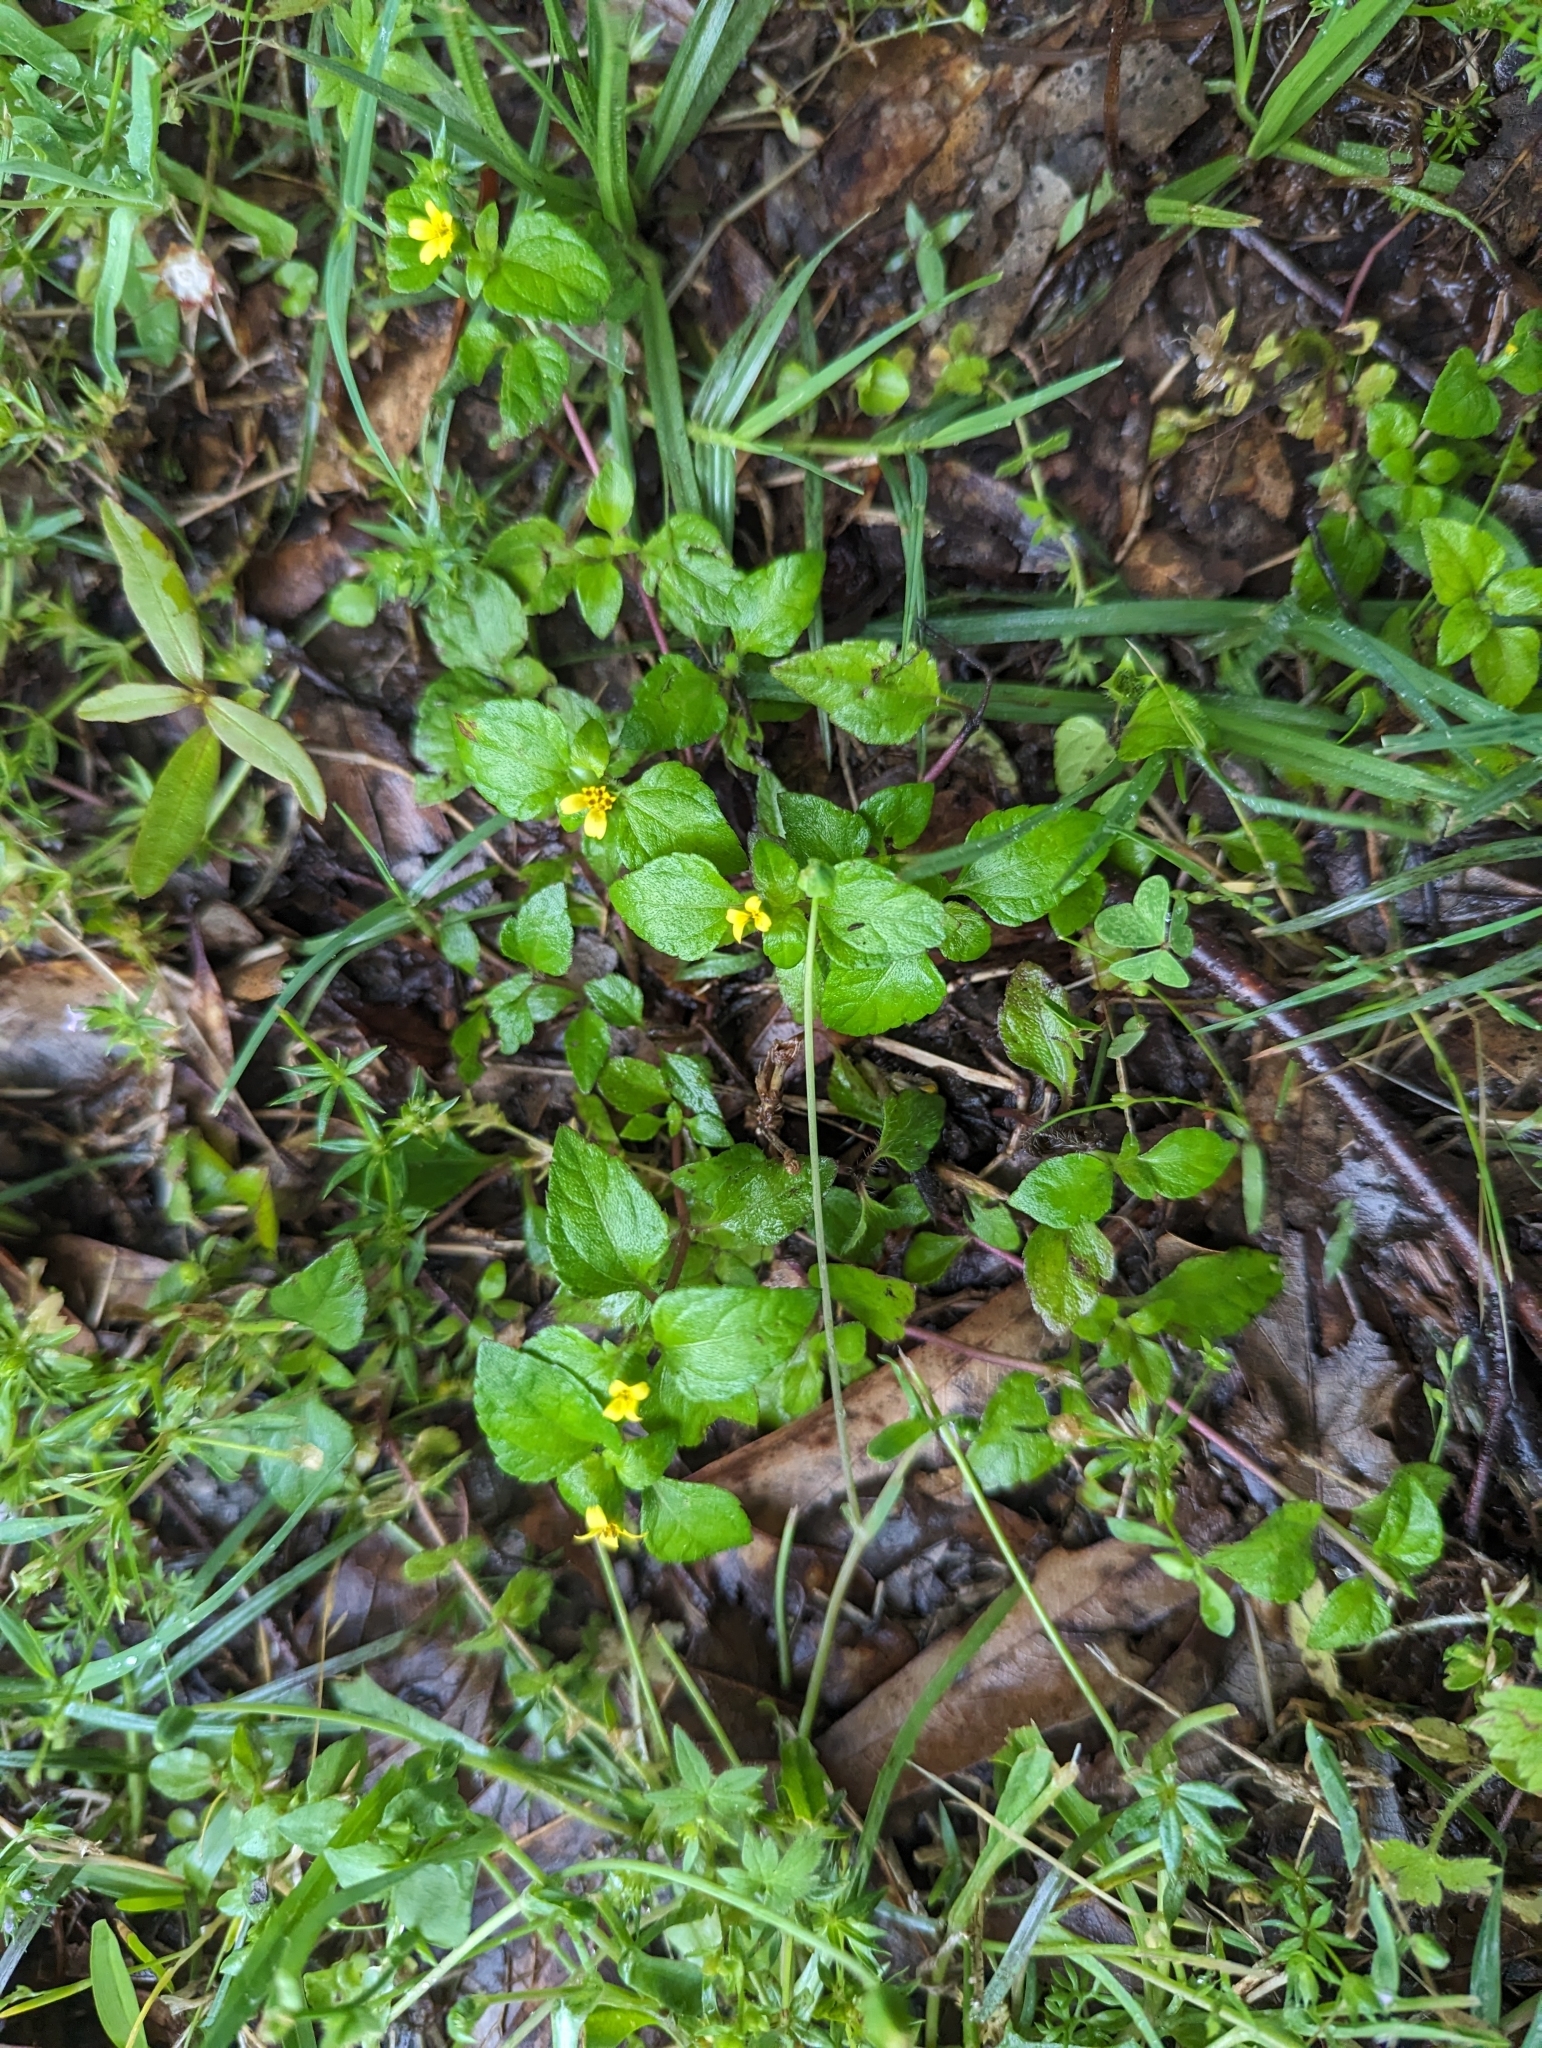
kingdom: Plantae
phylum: Tracheophyta
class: Magnoliopsida
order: Asterales
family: Asteraceae
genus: Calyptocarpus
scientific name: Calyptocarpus vialis
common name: Straggler daisy
